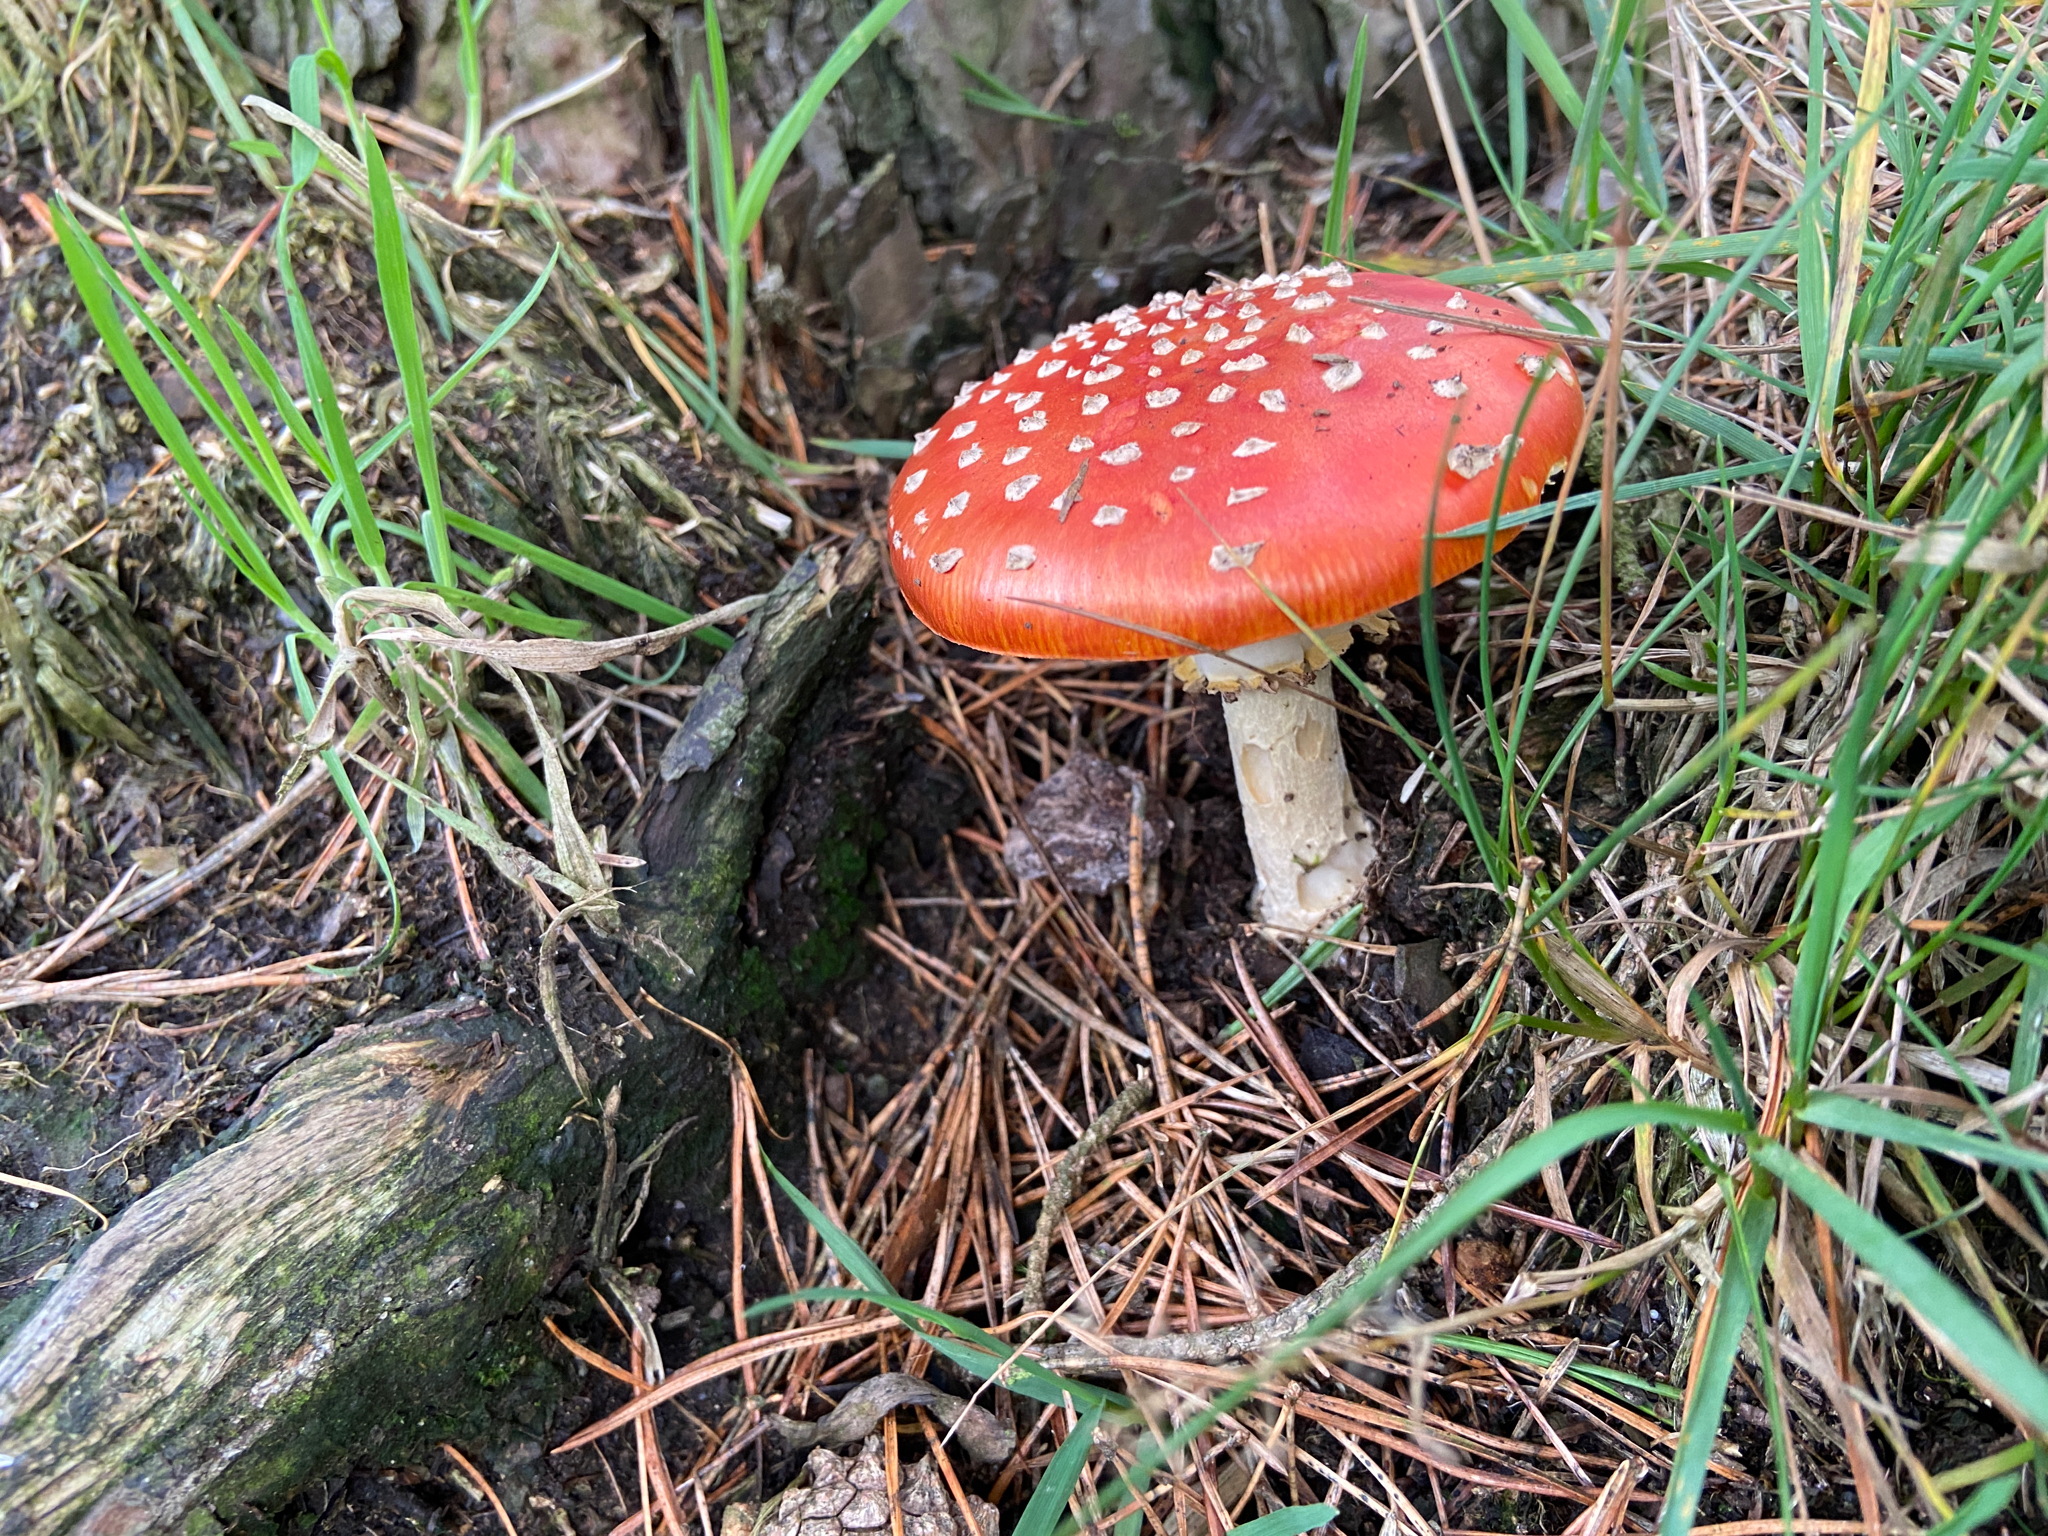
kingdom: Fungi
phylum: Basidiomycota
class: Agaricomycetes
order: Agaricales
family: Amanitaceae
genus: Amanita
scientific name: Amanita muscaria
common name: Fly agaric
